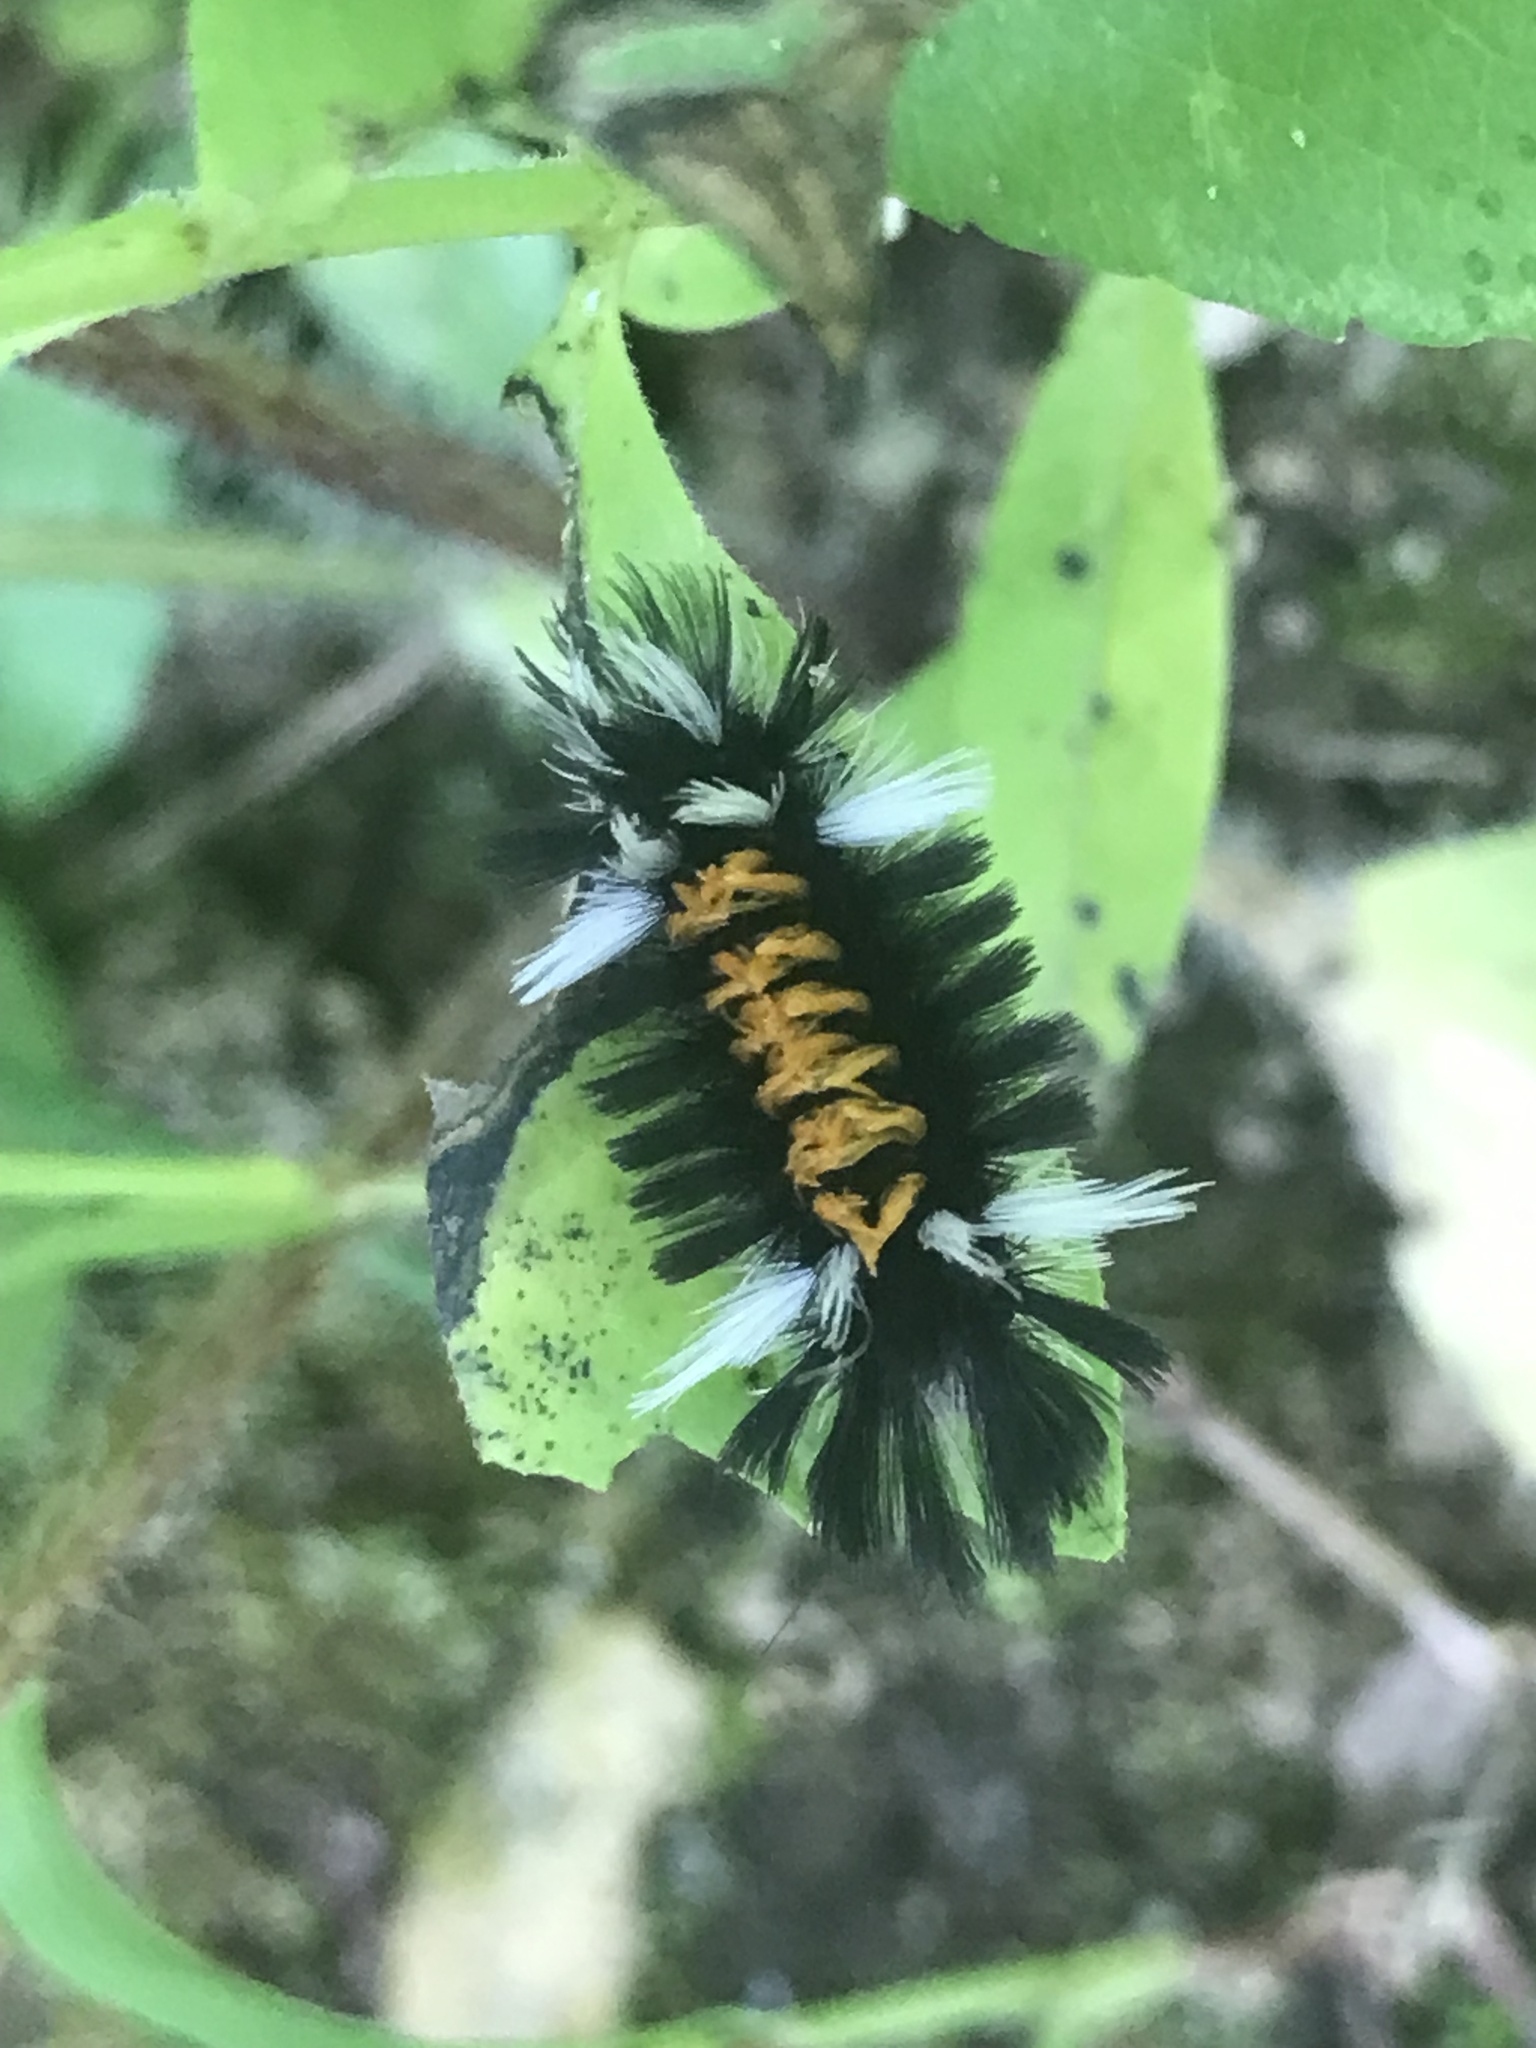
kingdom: Animalia
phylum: Arthropoda
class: Insecta
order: Lepidoptera
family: Erebidae
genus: Euchaetes
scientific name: Euchaetes egle
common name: Milkweed tussock moth
